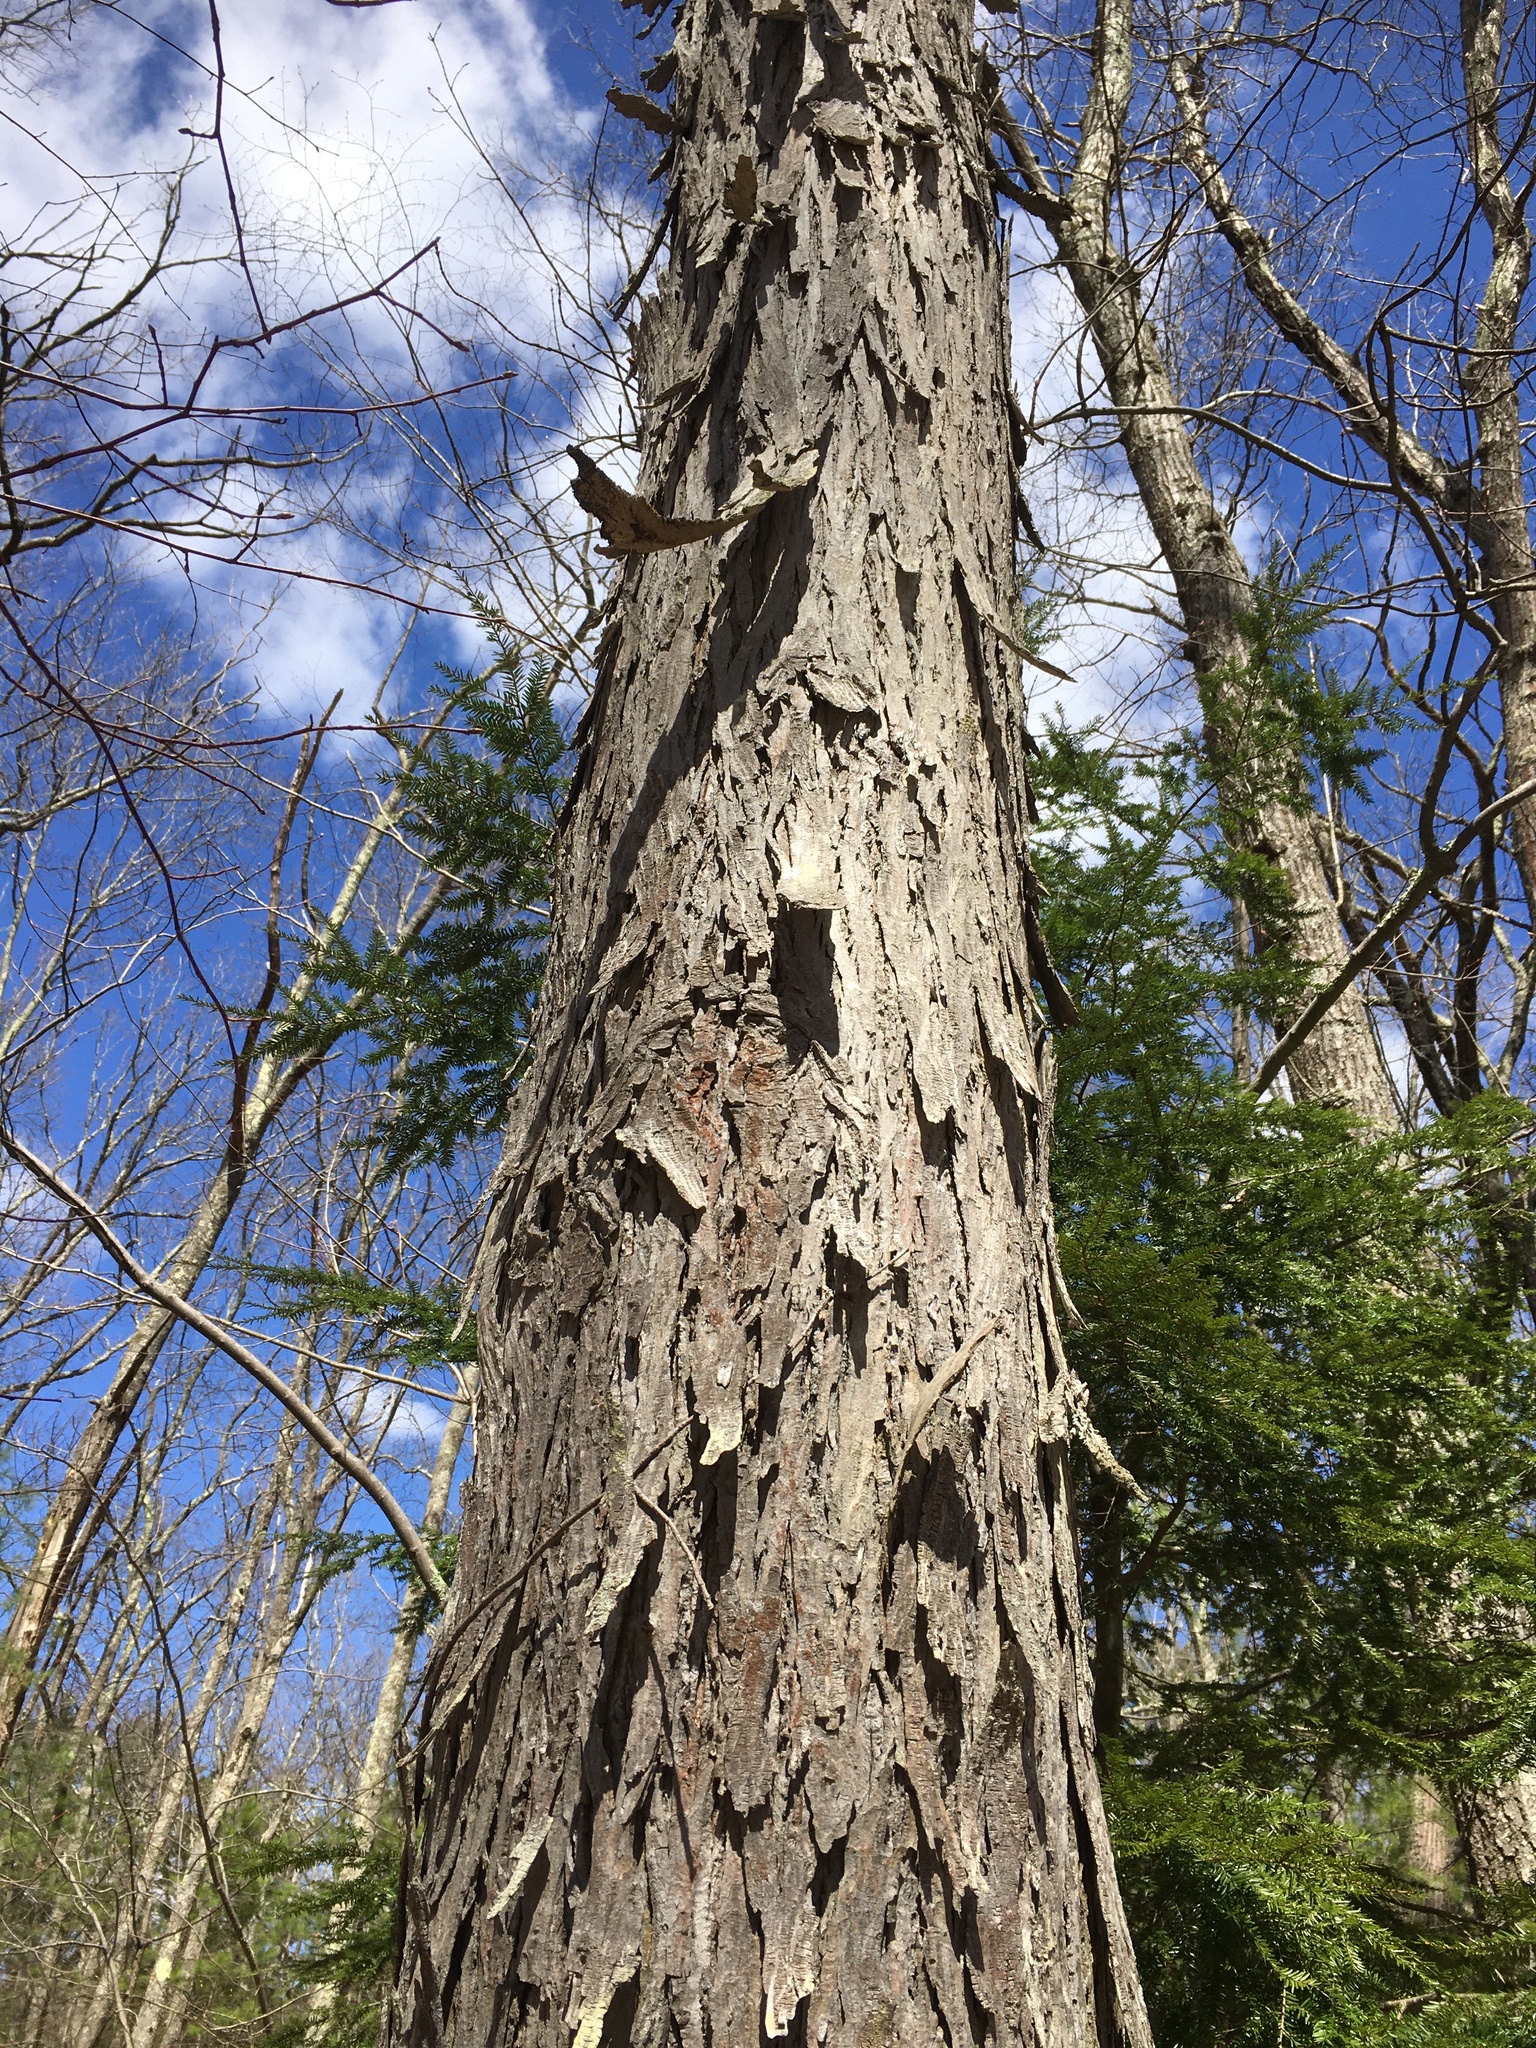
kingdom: Plantae
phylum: Tracheophyta
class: Magnoliopsida
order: Fagales
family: Juglandaceae
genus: Carya
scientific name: Carya ovata
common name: Shagbark hickory
